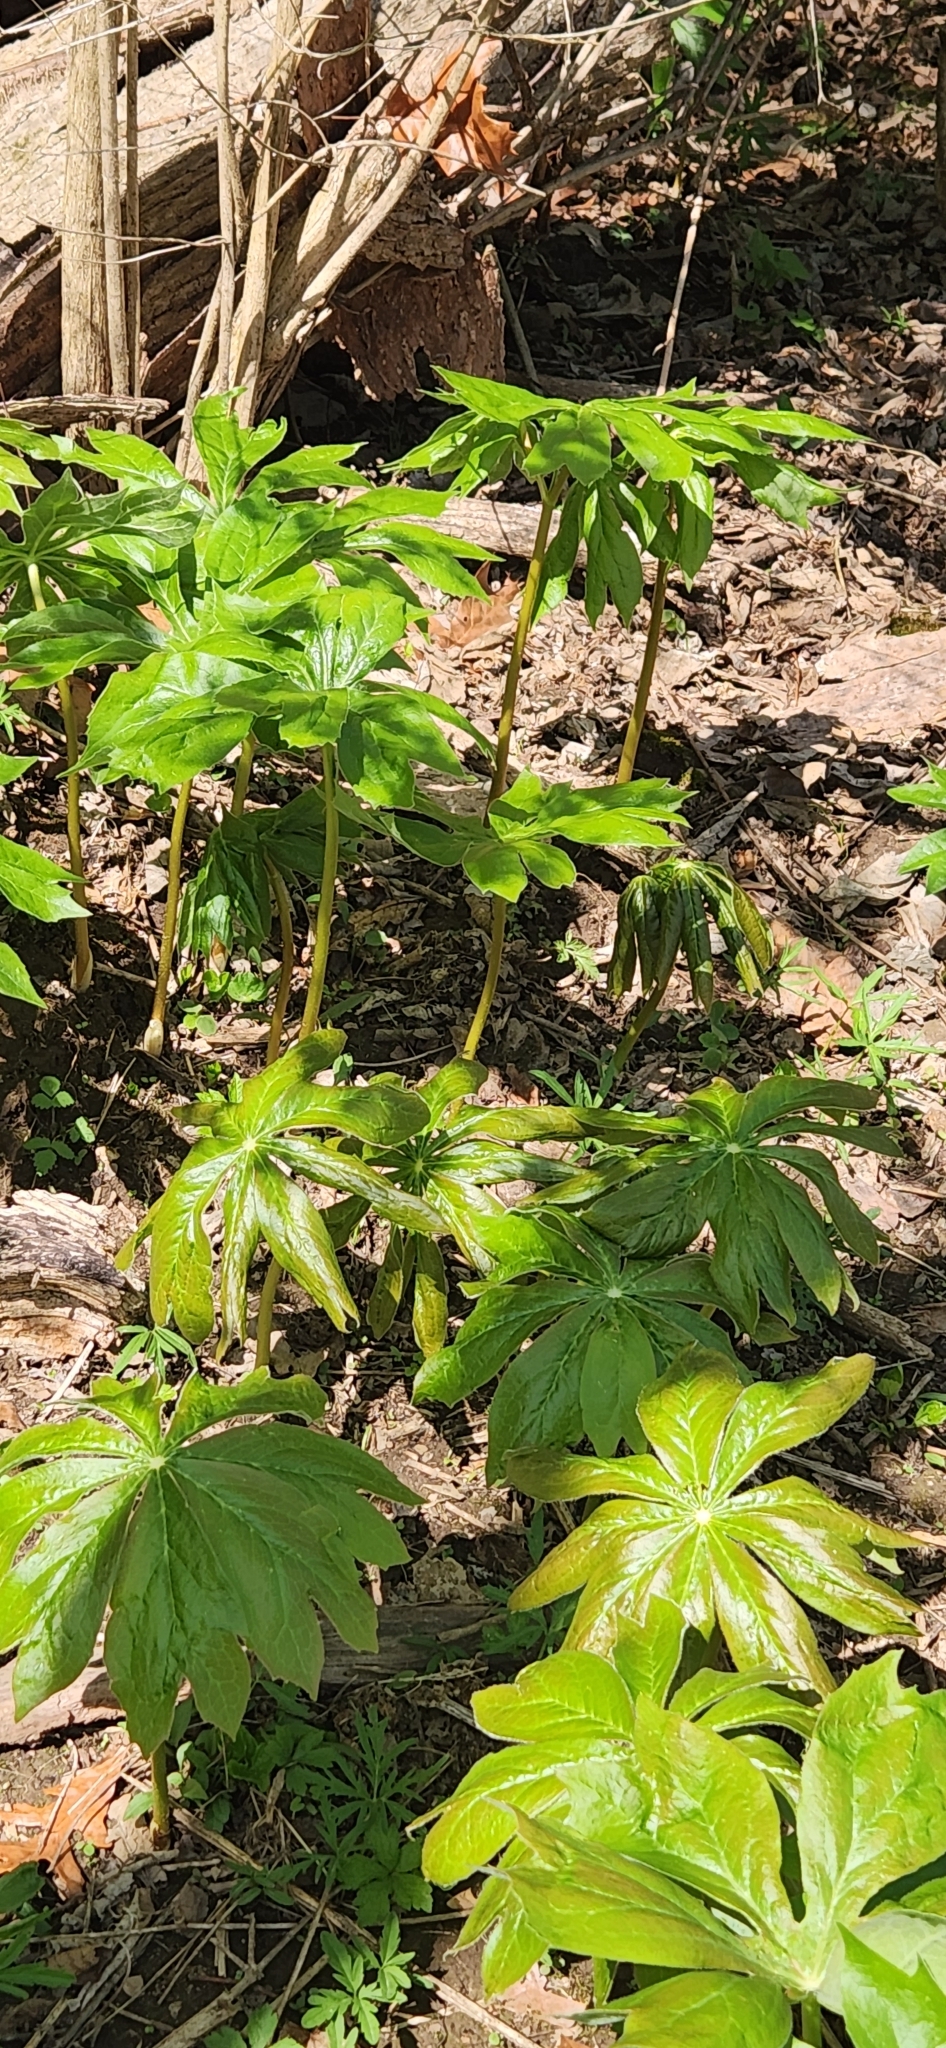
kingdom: Plantae
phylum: Tracheophyta
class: Magnoliopsida
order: Ranunculales
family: Berberidaceae
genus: Podophyllum
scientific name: Podophyllum peltatum
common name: Wild mandrake
